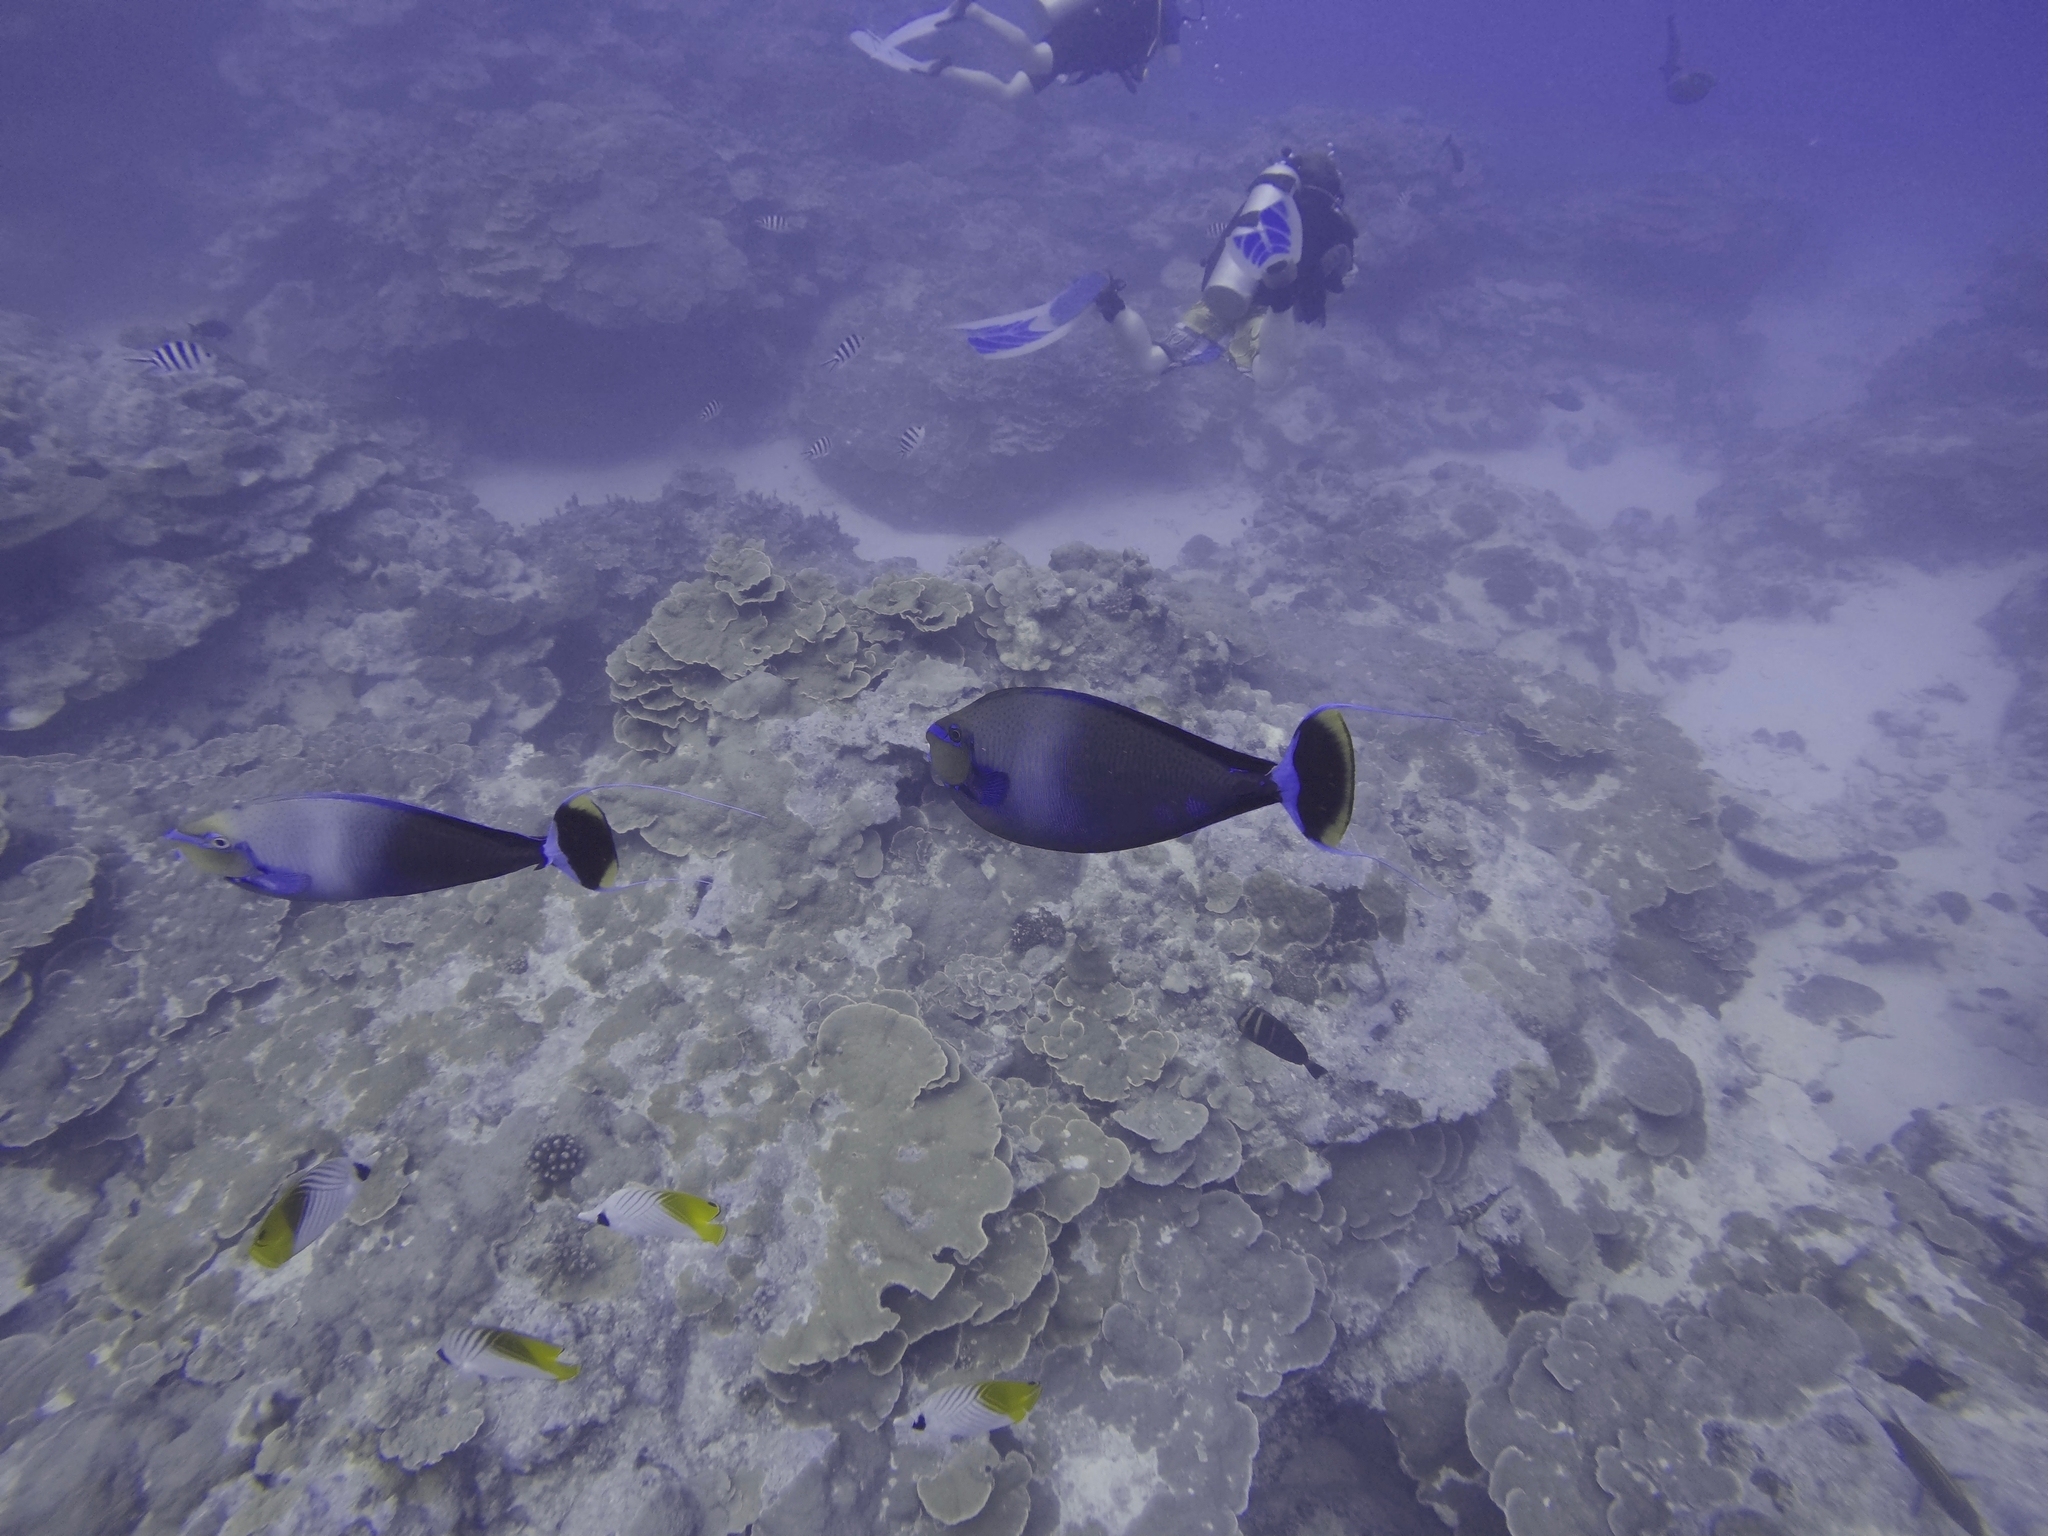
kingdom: Animalia
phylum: Chordata
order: Perciformes
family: Acanthuridae
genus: Naso
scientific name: Naso vlamingii
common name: Big-nose unicorn
